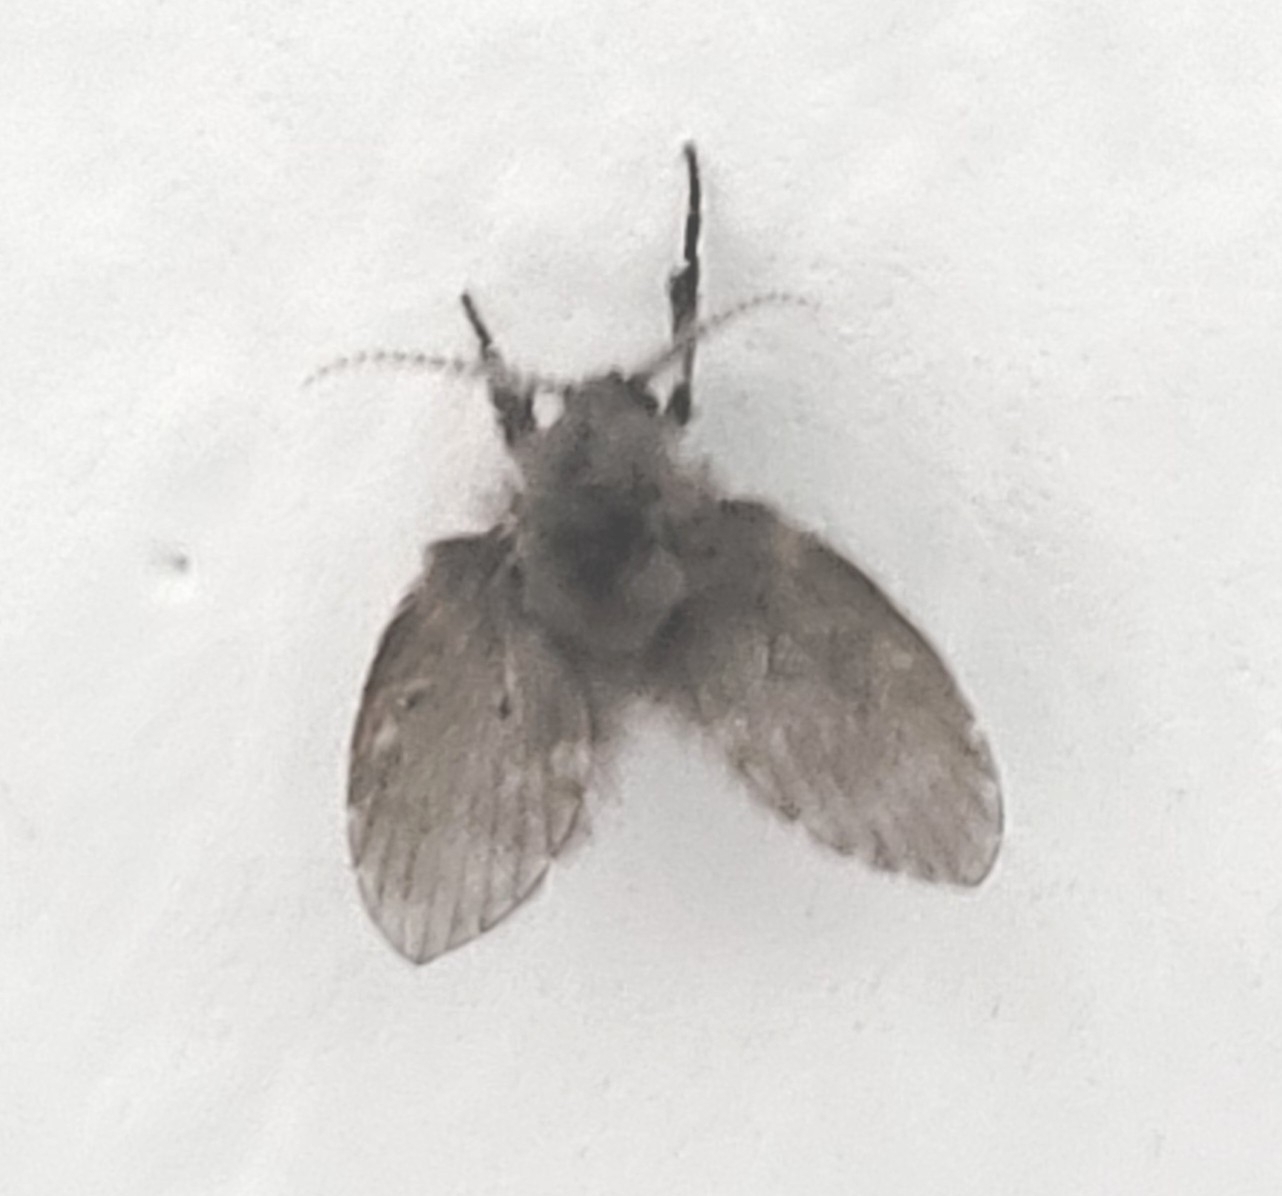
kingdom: Animalia
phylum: Arthropoda
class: Insecta
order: Diptera
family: Psychodidae
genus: Clogmia
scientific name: Clogmia albipunctatus
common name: White-spotted moth fly
